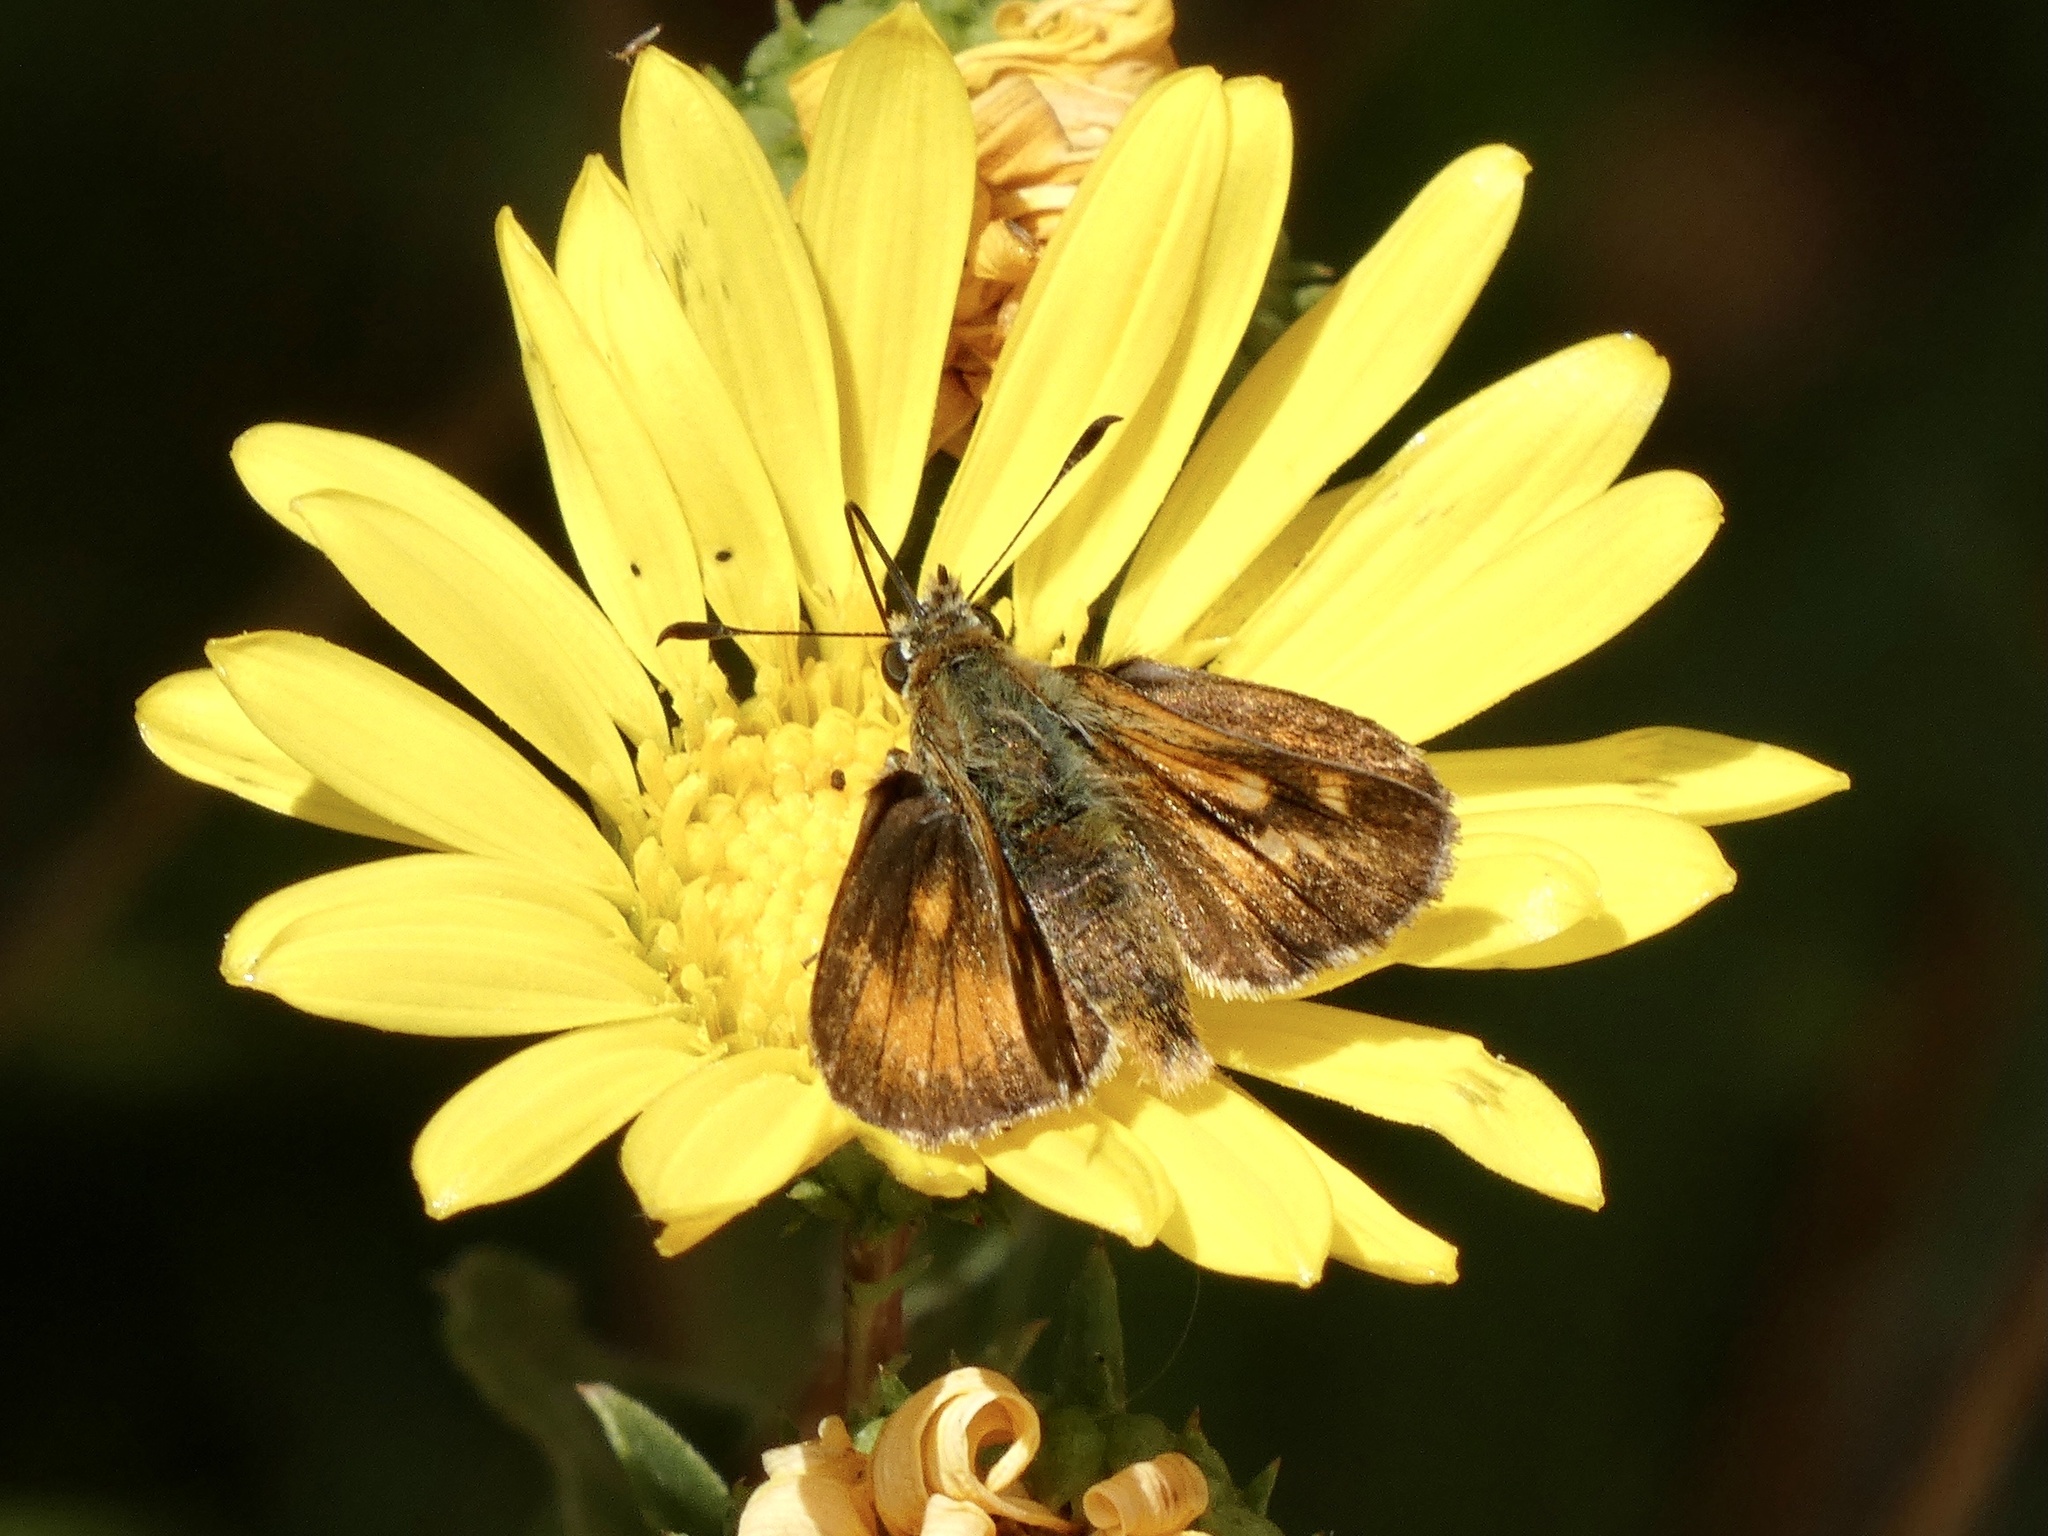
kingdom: Animalia
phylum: Arthropoda
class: Insecta
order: Lepidoptera
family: Hesperiidae
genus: Ochlodes
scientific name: Ochlodes agricola
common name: Rural skipper
